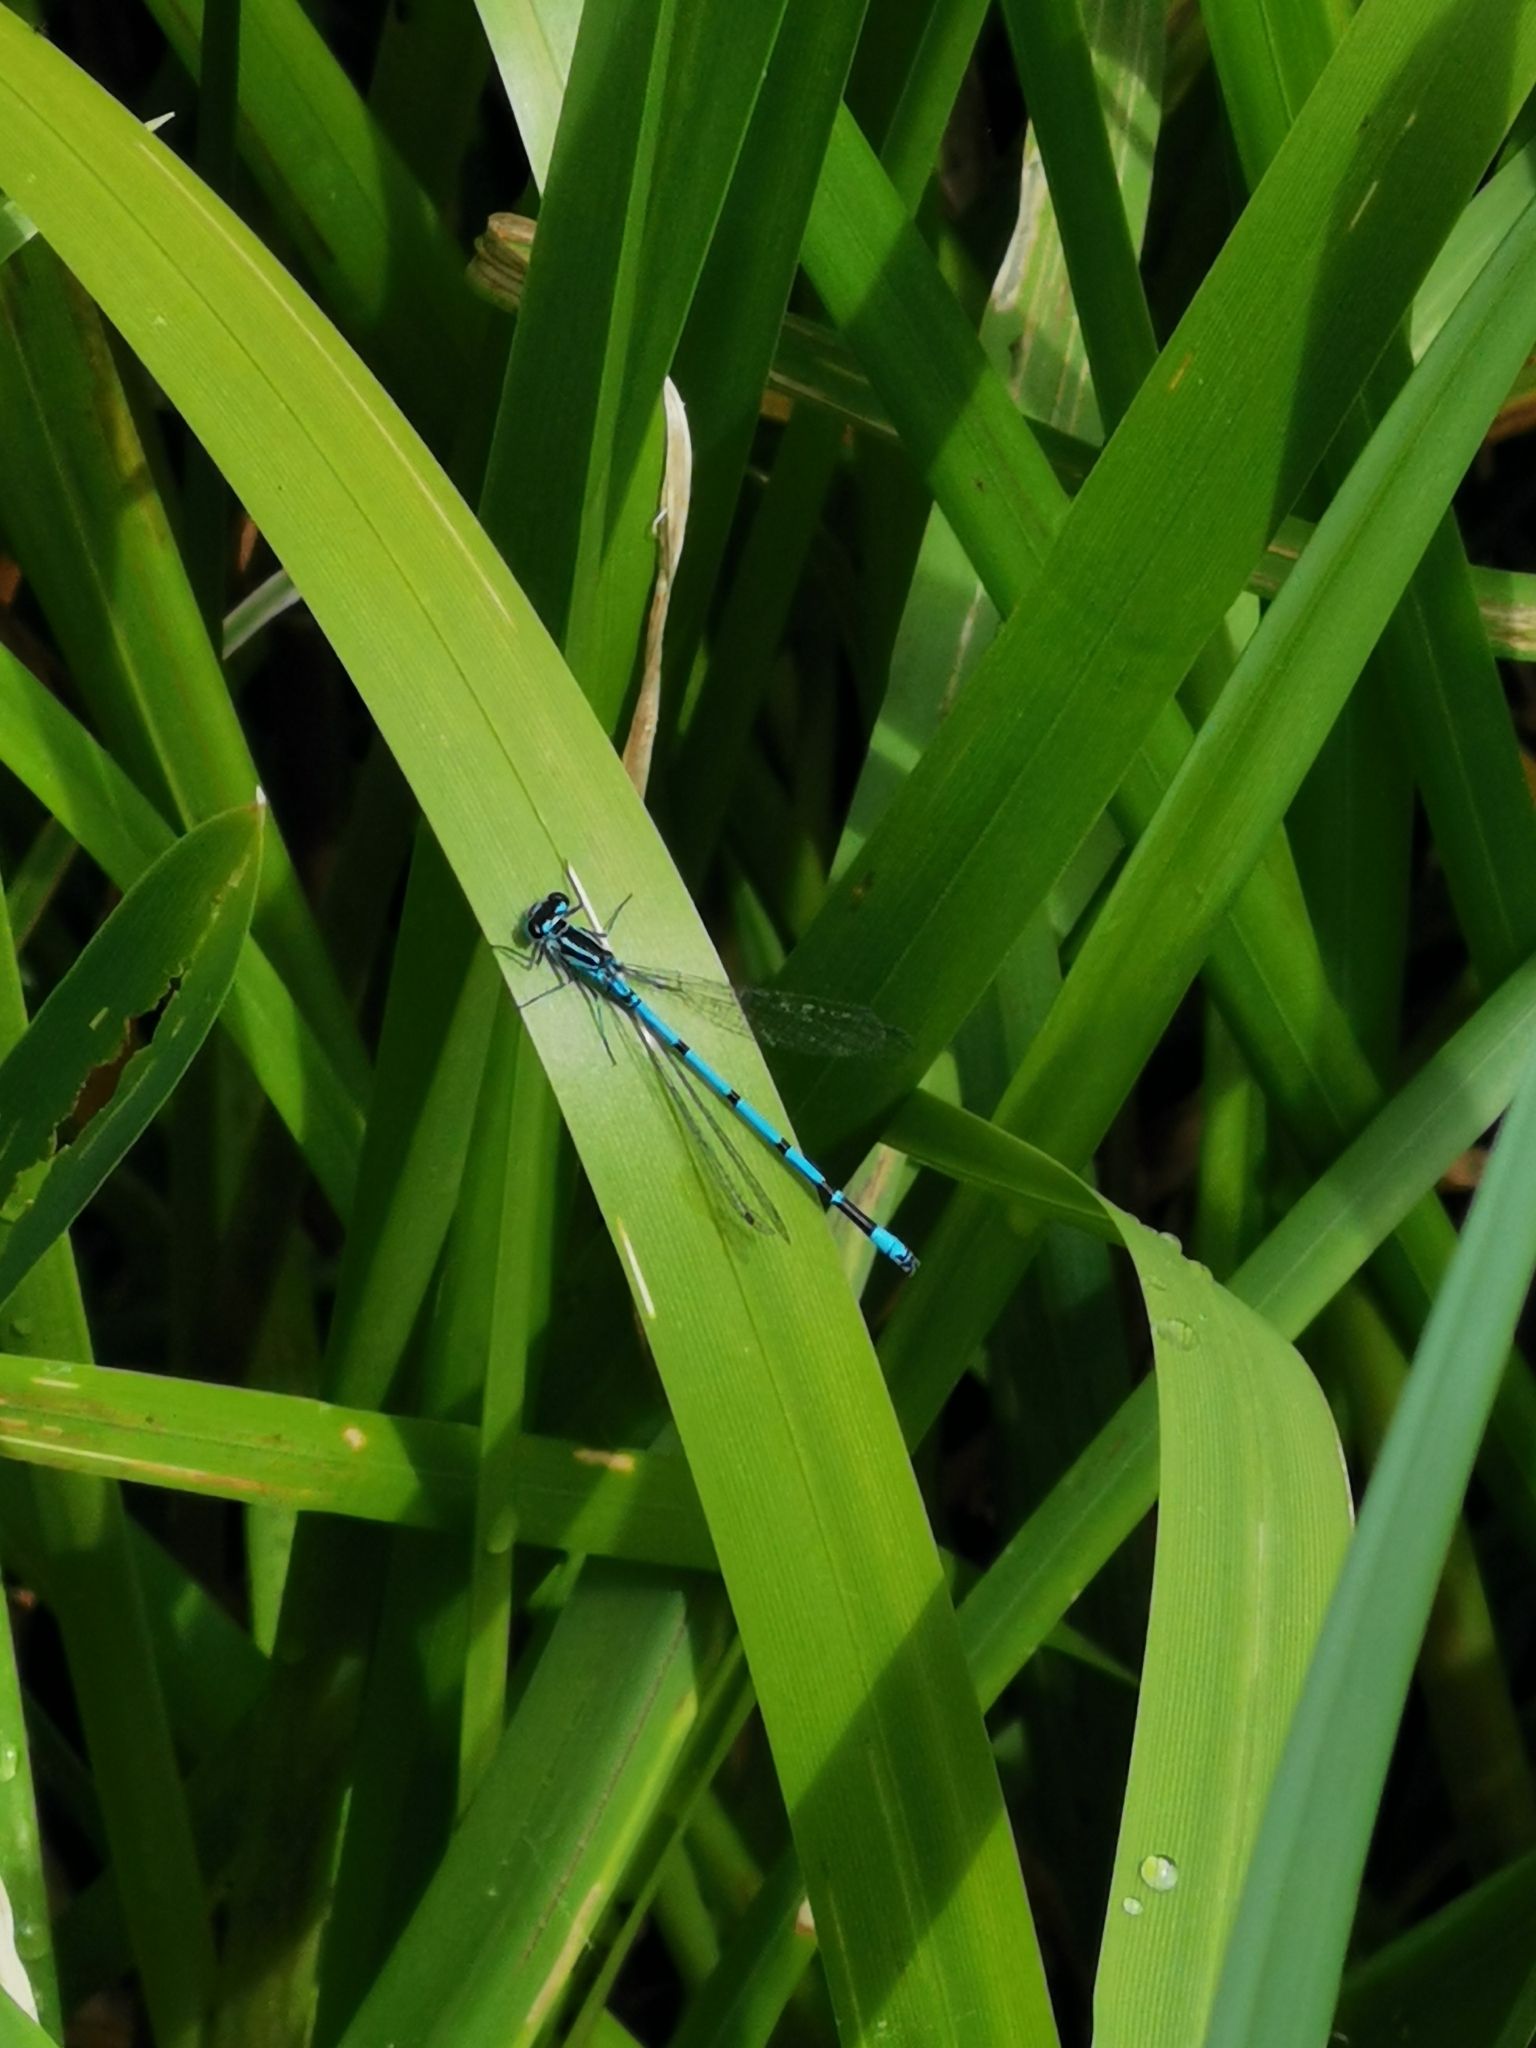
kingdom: Animalia
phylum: Arthropoda
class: Insecta
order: Odonata
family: Coenagrionidae
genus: Coenagrion
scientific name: Coenagrion puella
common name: Azure damselfly
